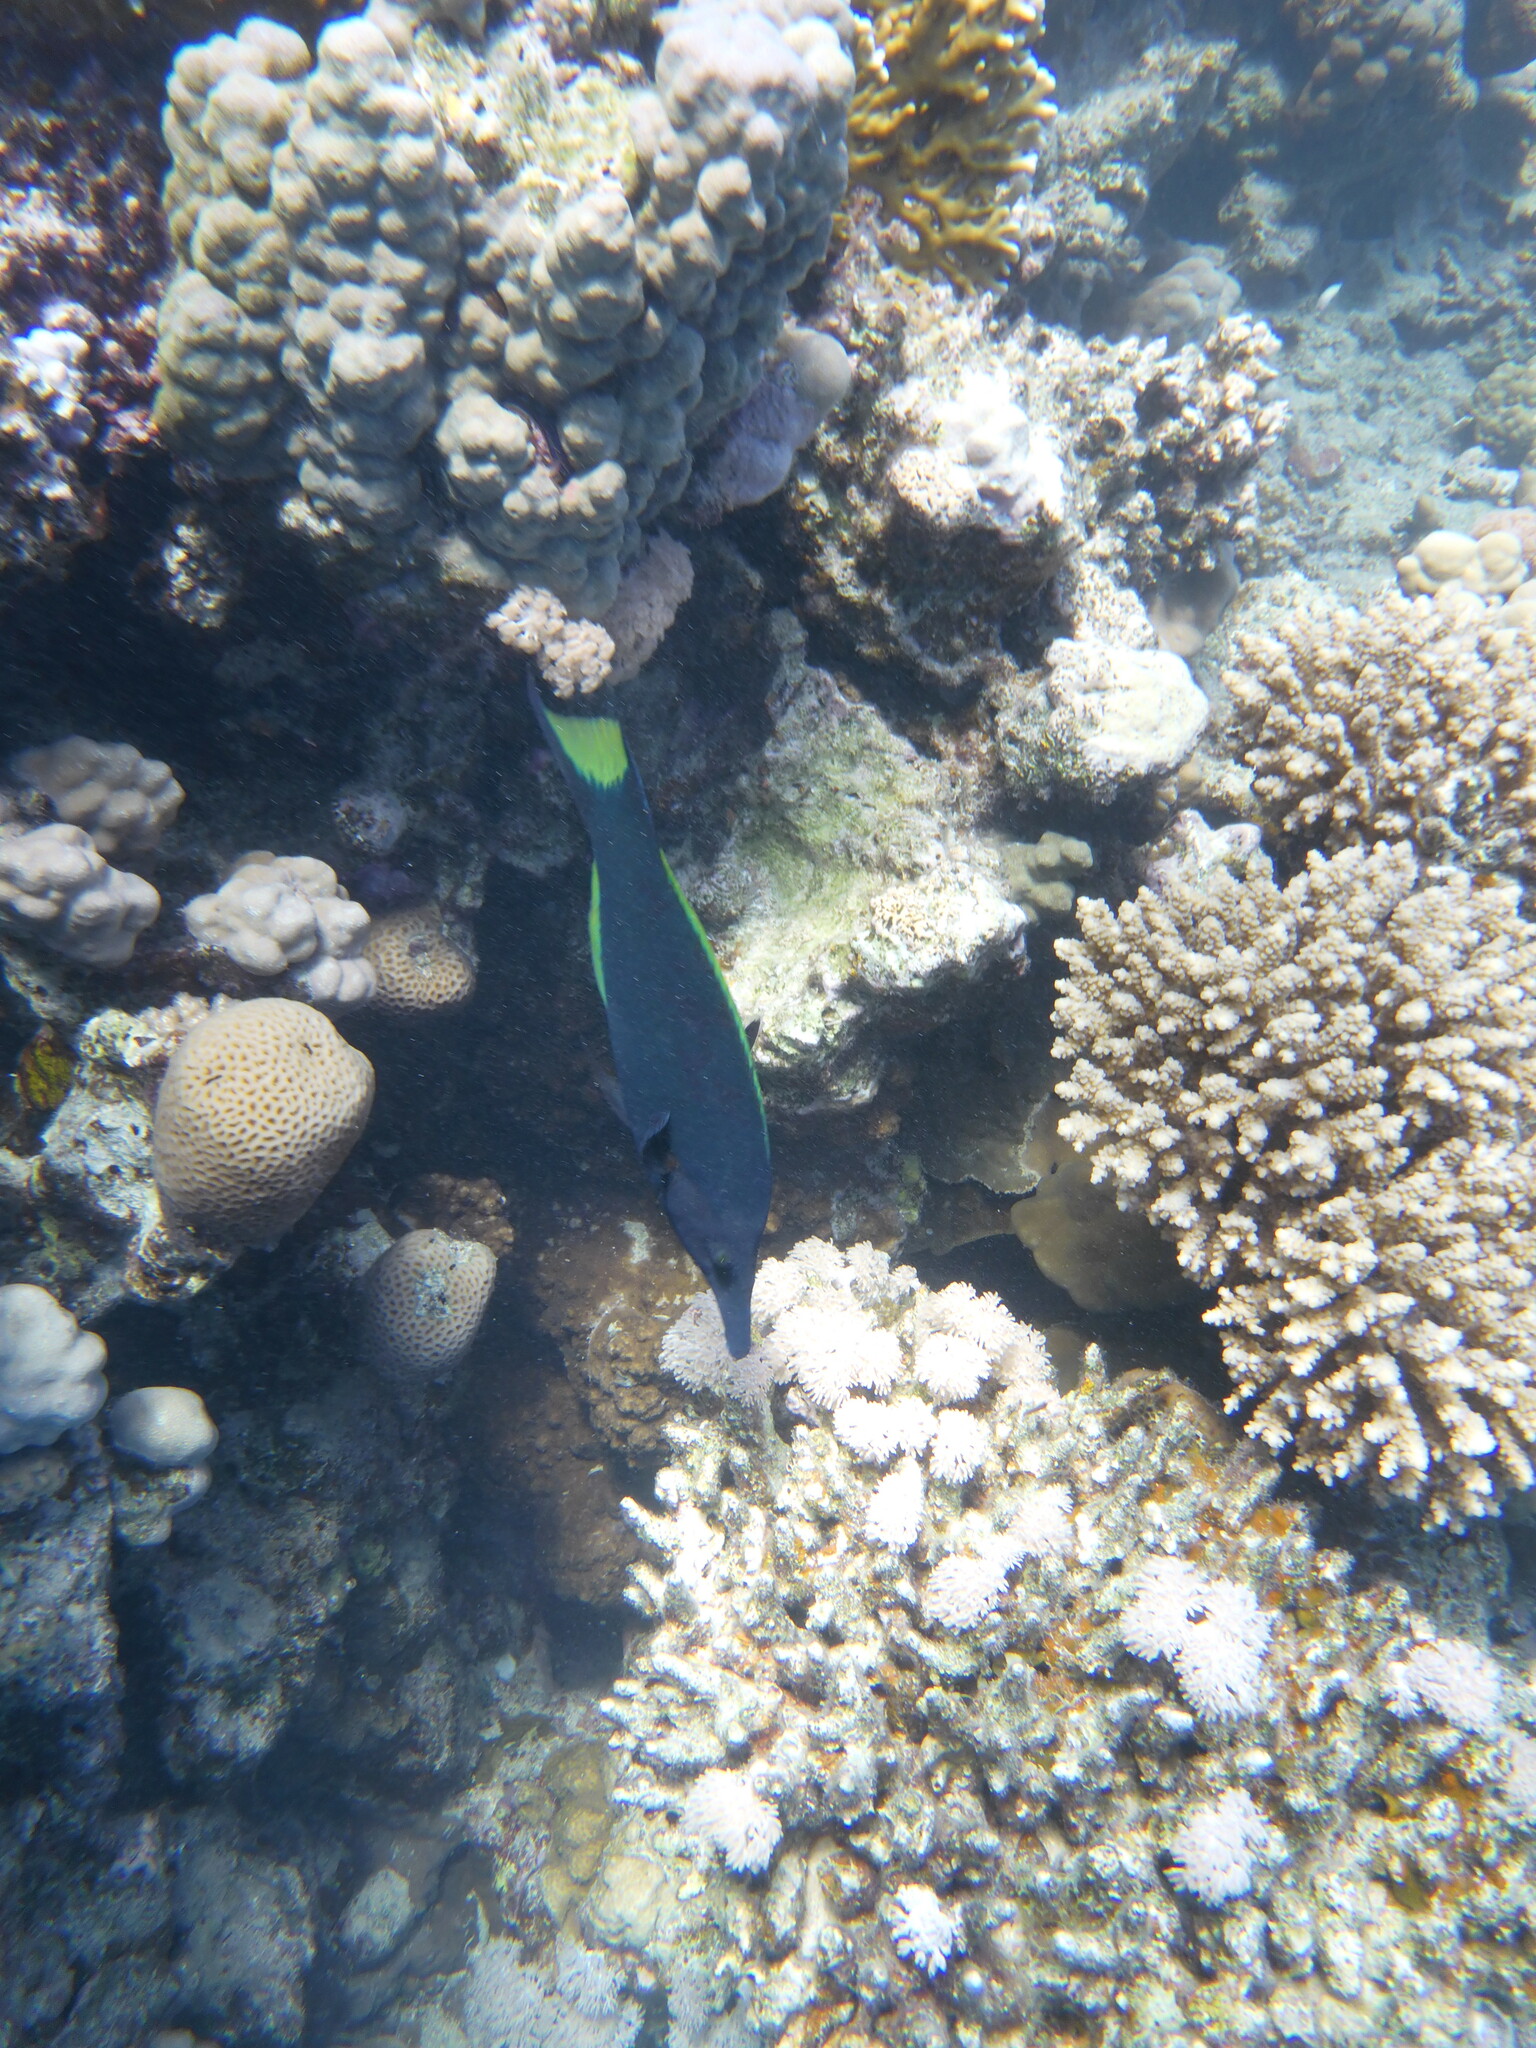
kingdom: Animalia
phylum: Chordata
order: Perciformes
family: Labridae
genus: Gomphosus
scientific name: Gomphosus klunzingeri
